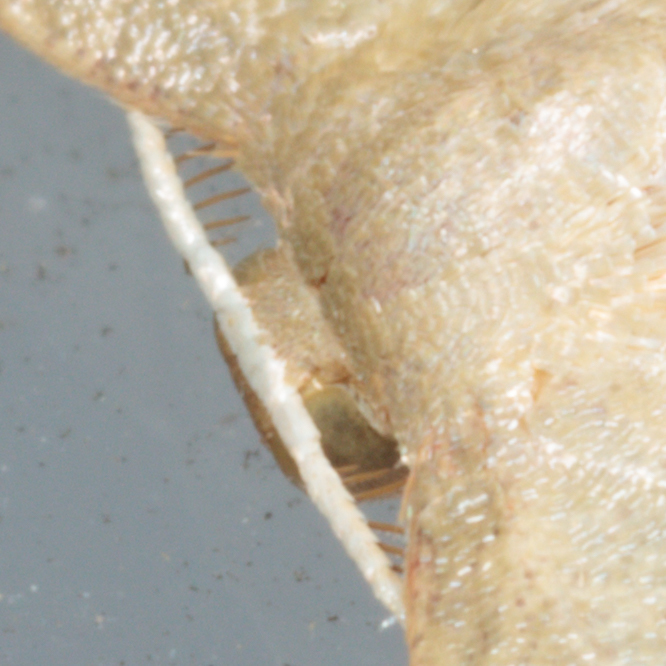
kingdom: Animalia
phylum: Arthropoda
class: Insecta
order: Lepidoptera
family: Geometridae
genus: Pleuroprucha
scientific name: Pleuroprucha insulsaria
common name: Common tan wave
